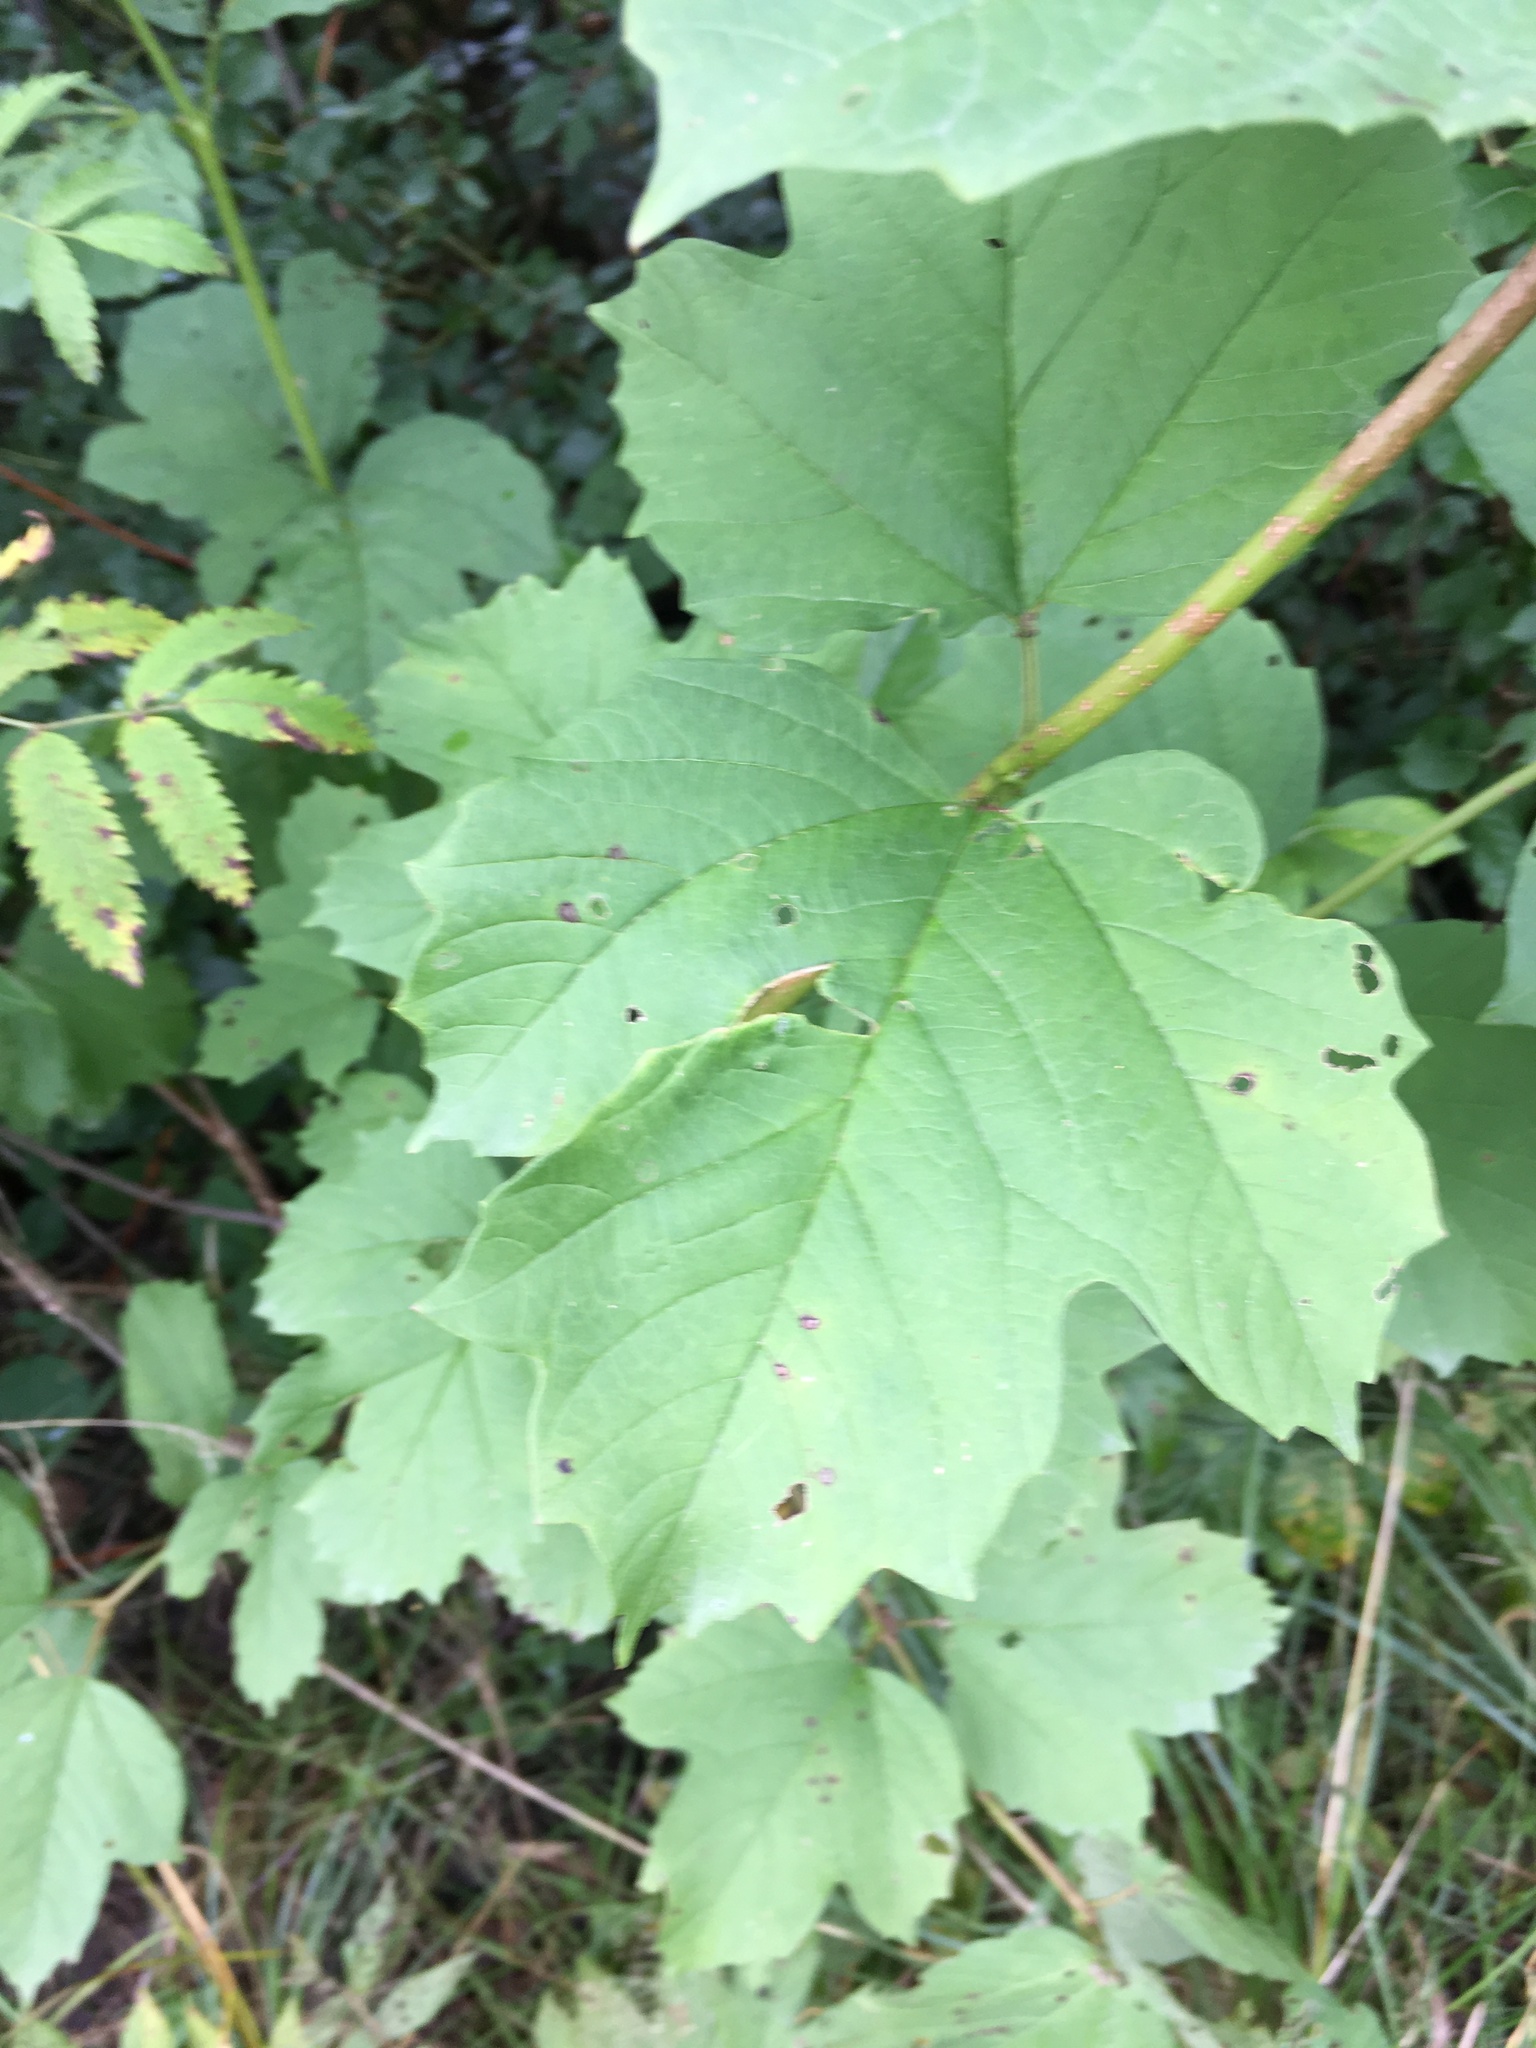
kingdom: Plantae
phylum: Tracheophyta
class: Magnoliopsida
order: Dipsacales
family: Viburnaceae
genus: Viburnum
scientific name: Viburnum opulus
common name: Guelder-rose
